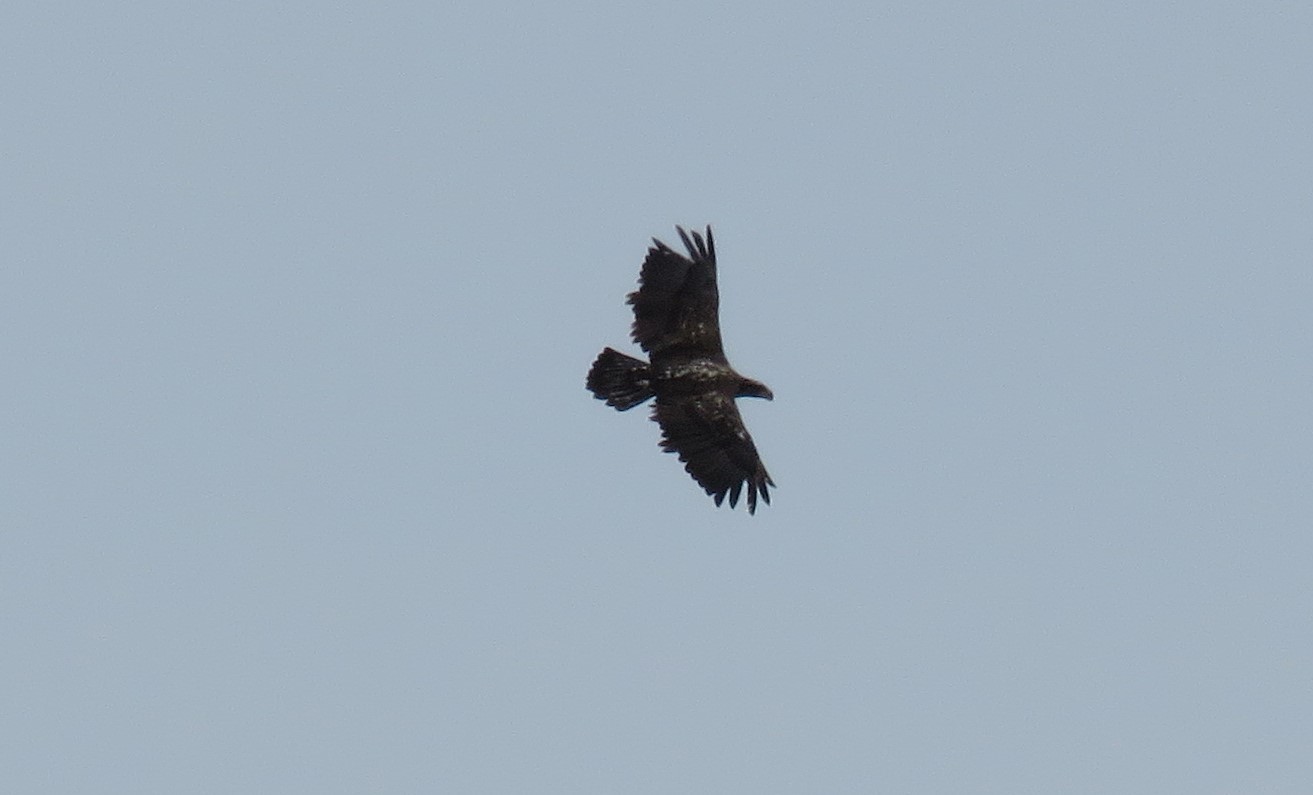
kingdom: Animalia
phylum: Chordata
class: Aves
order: Accipitriformes
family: Accipitridae
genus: Haliaeetus
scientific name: Haliaeetus leucocephalus
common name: Bald eagle
